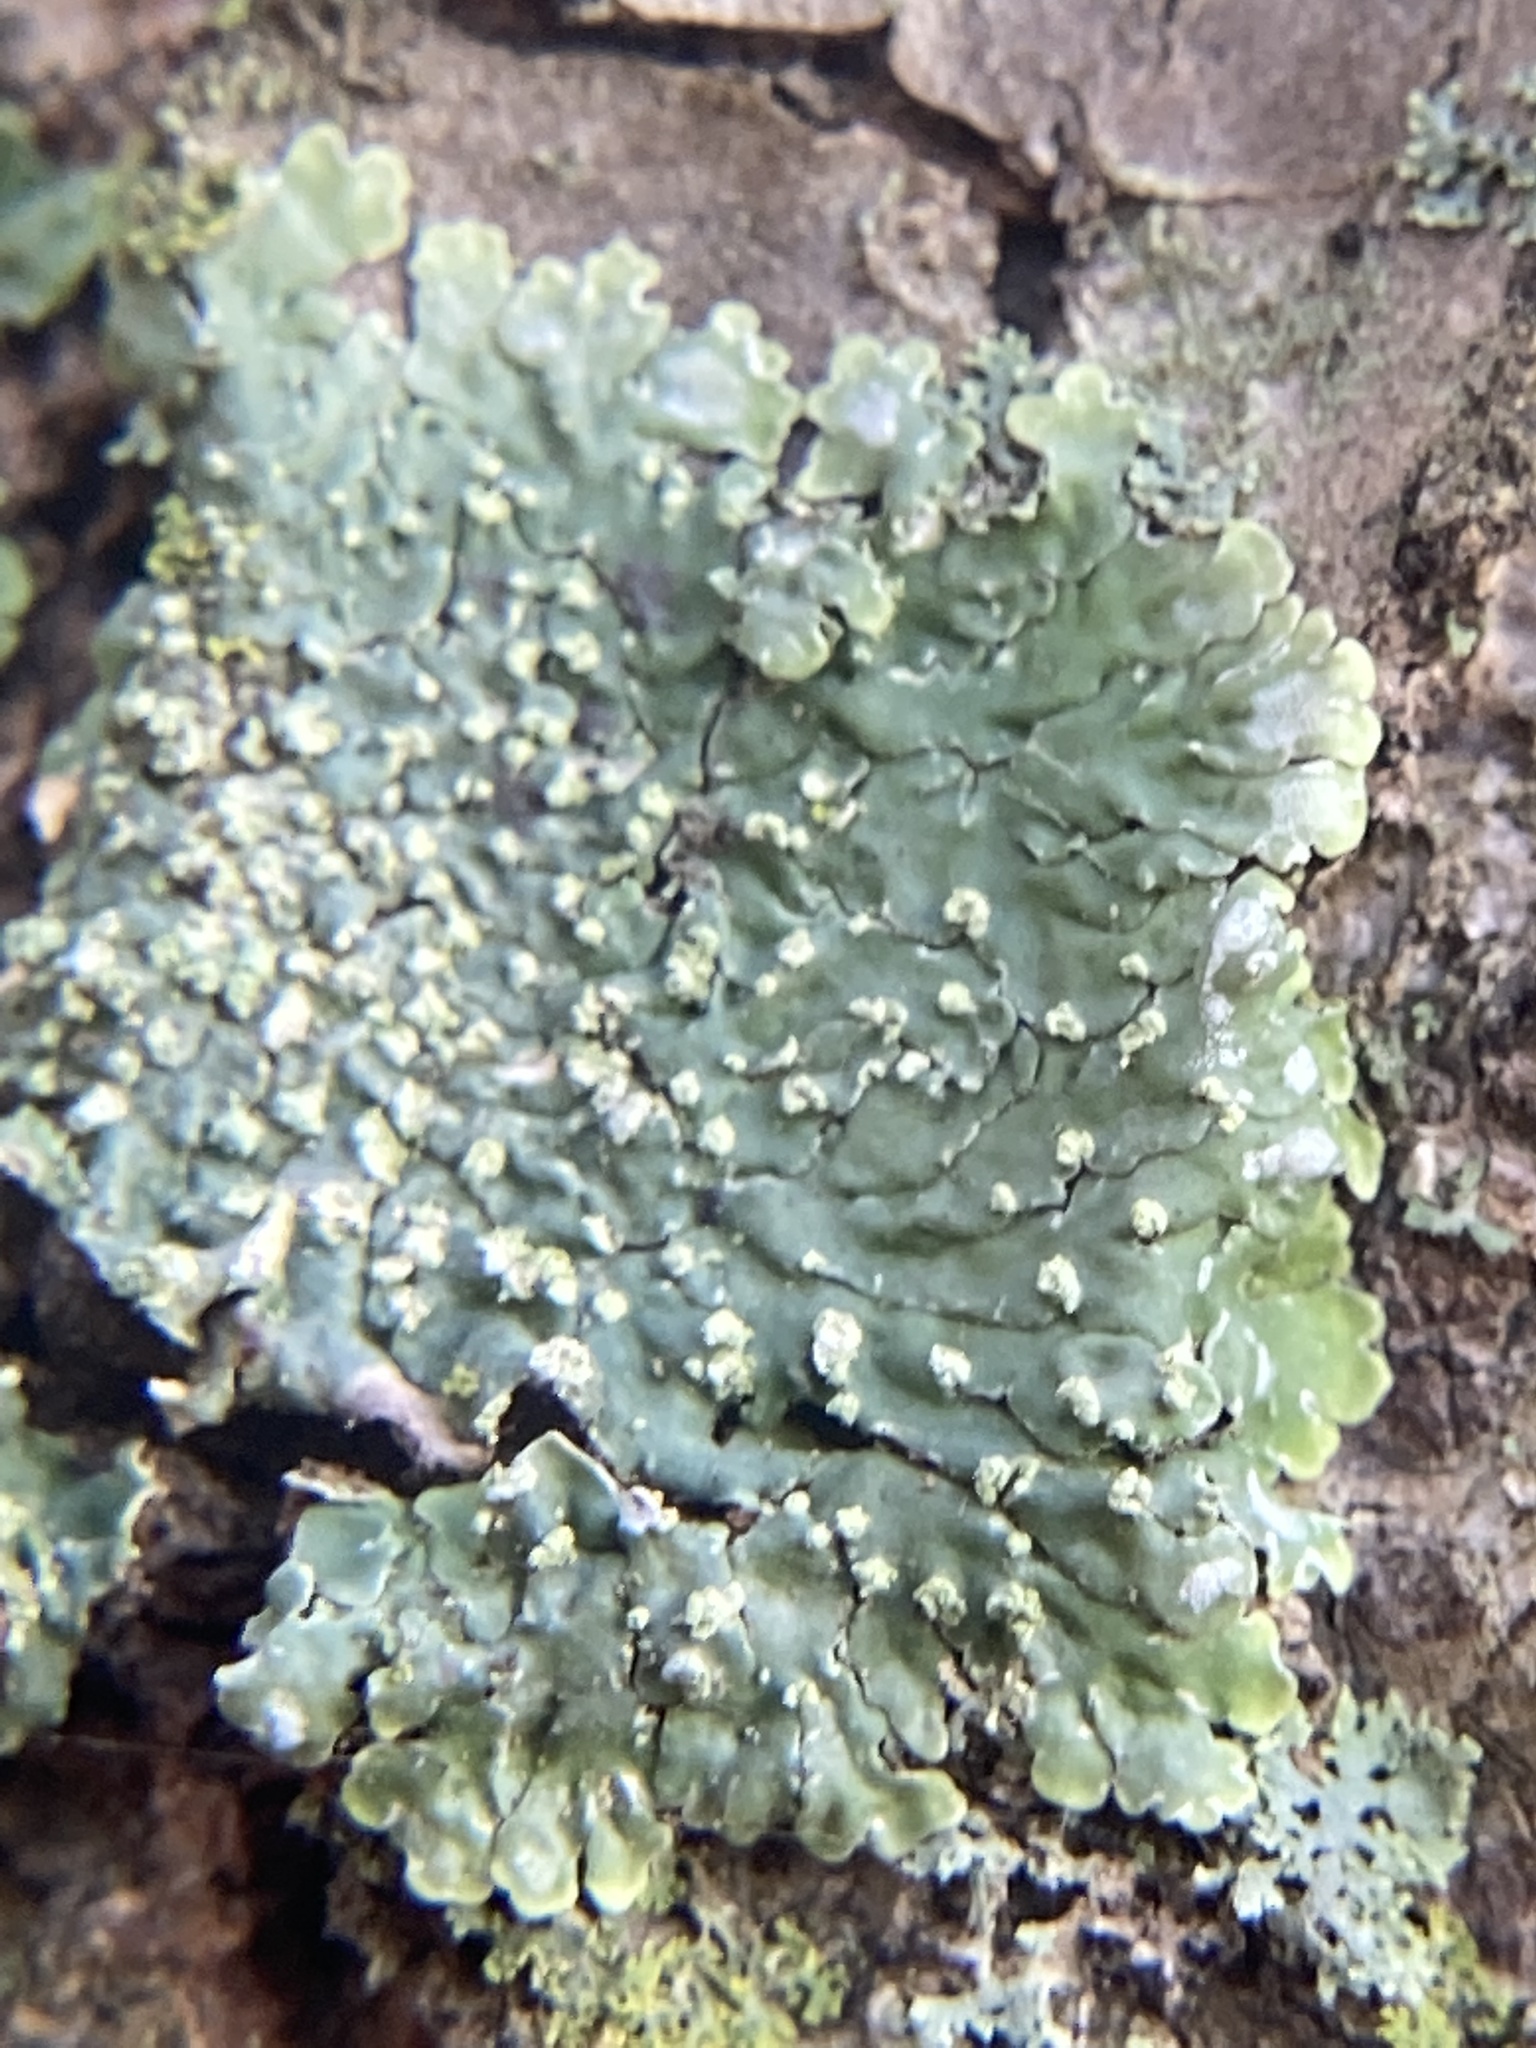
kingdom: Fungi
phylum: Ascomycota
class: Lecanoromycetes
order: Caliciales
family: Caliciaceae
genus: Pyxine
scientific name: Pyxine sorediata
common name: Mustard lichen
